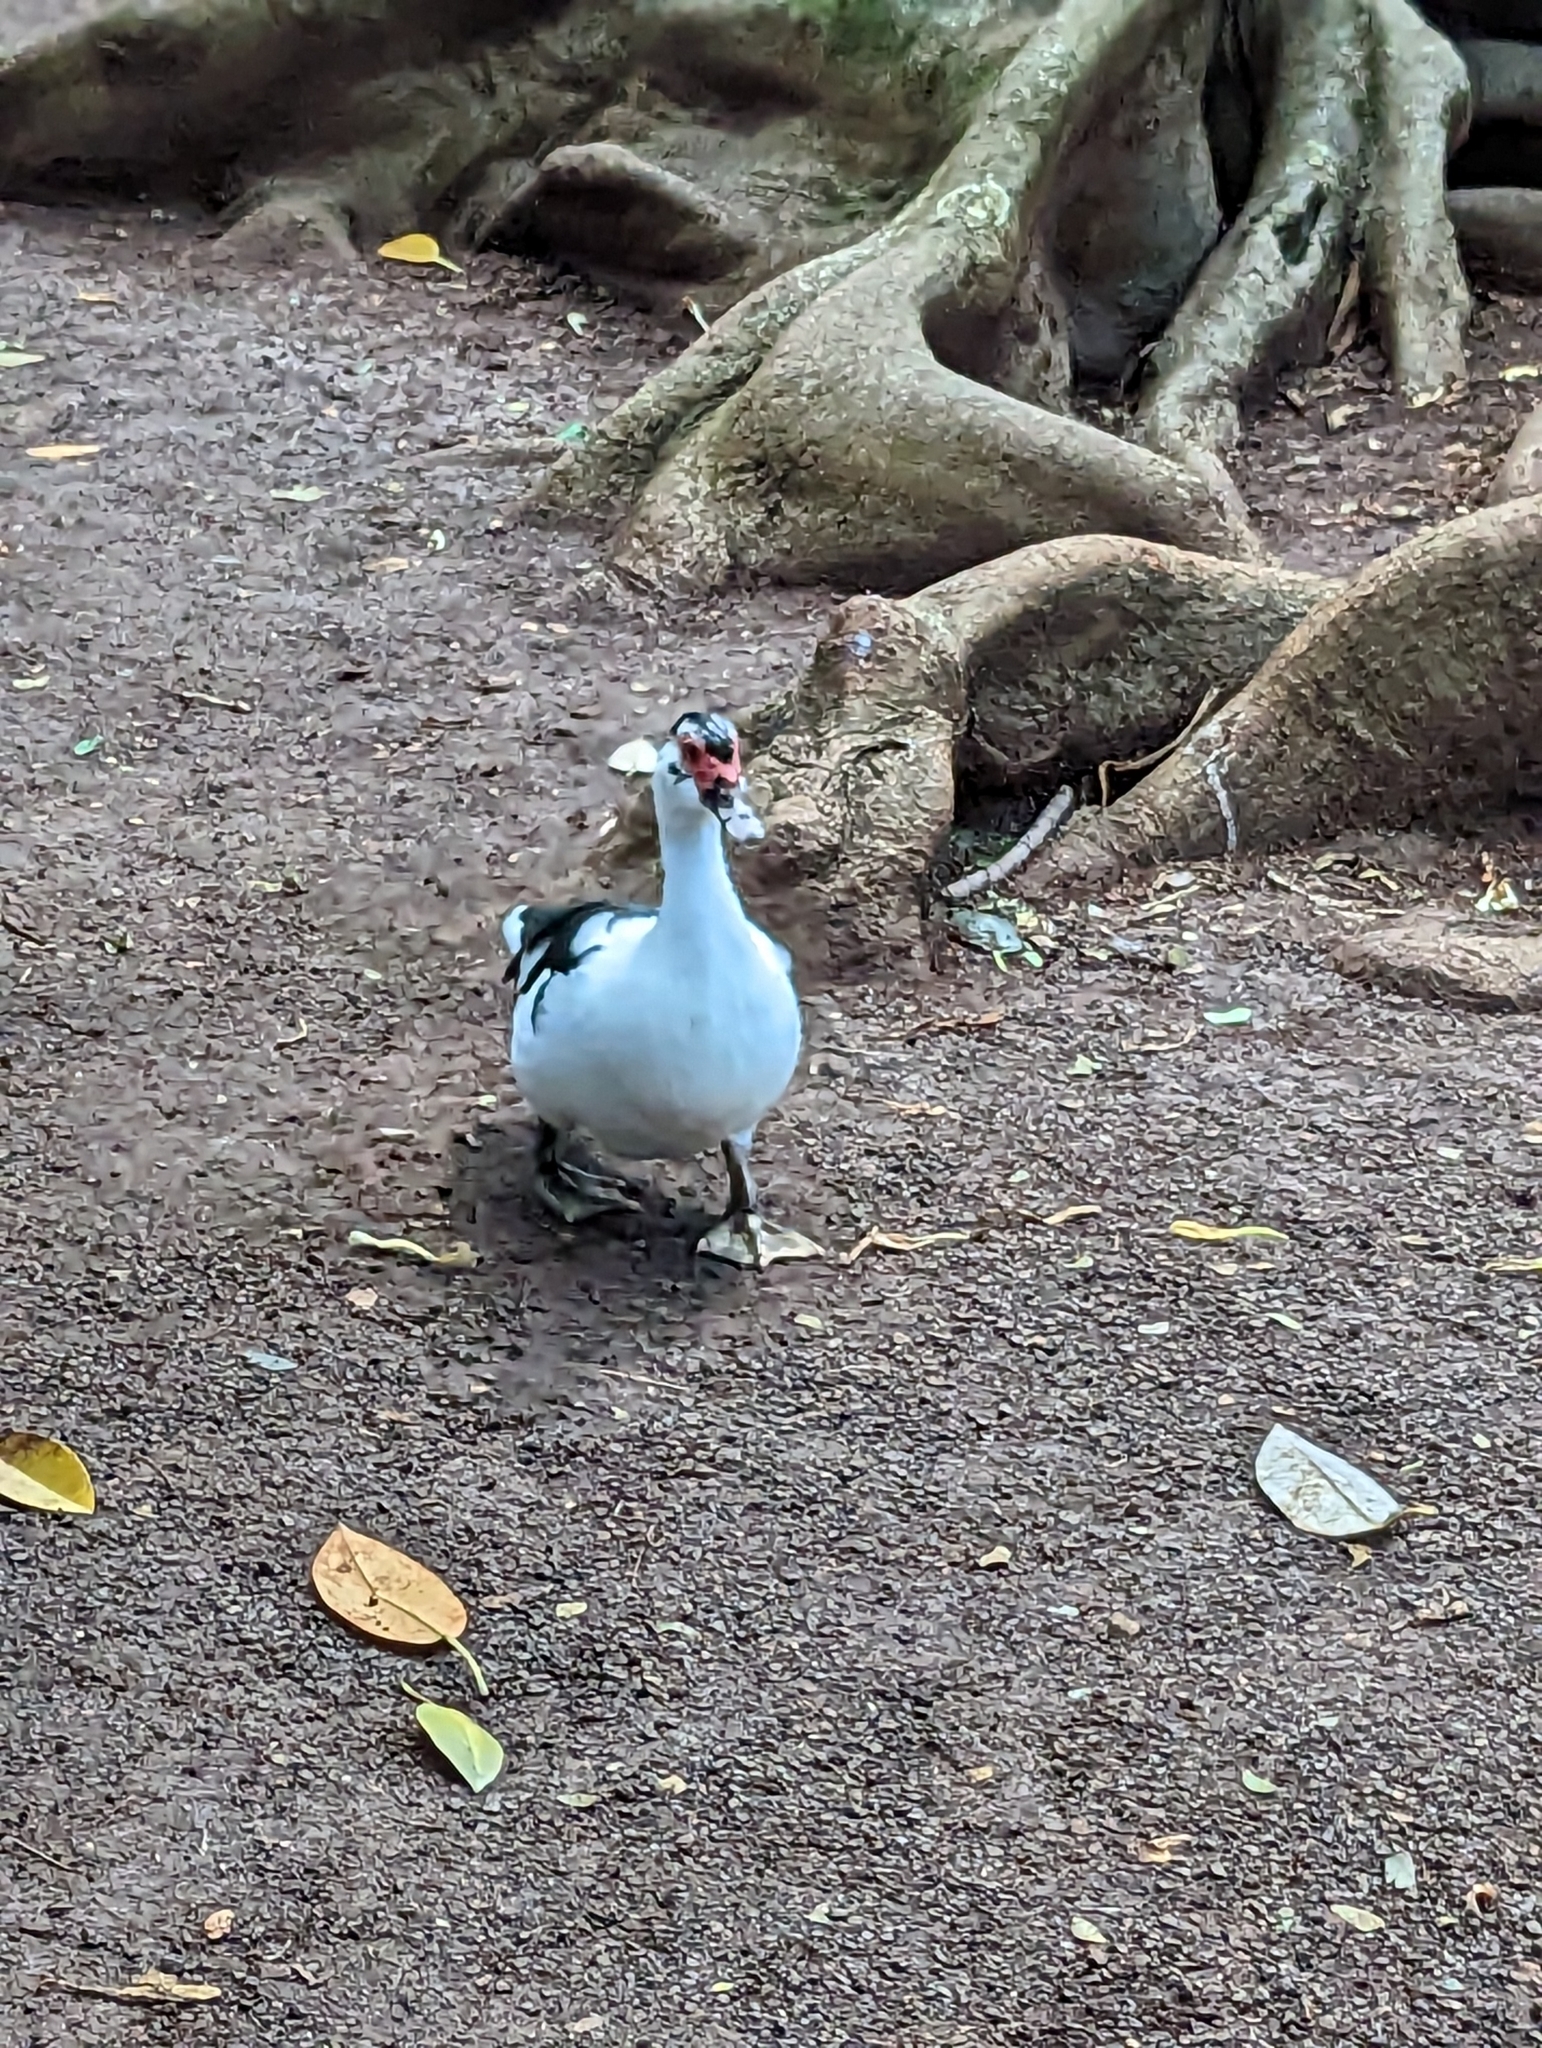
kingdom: Animalia
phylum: Chordata
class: Aves
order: Anseriformes
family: Anatidae
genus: Cairina
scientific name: Cairina moschata
